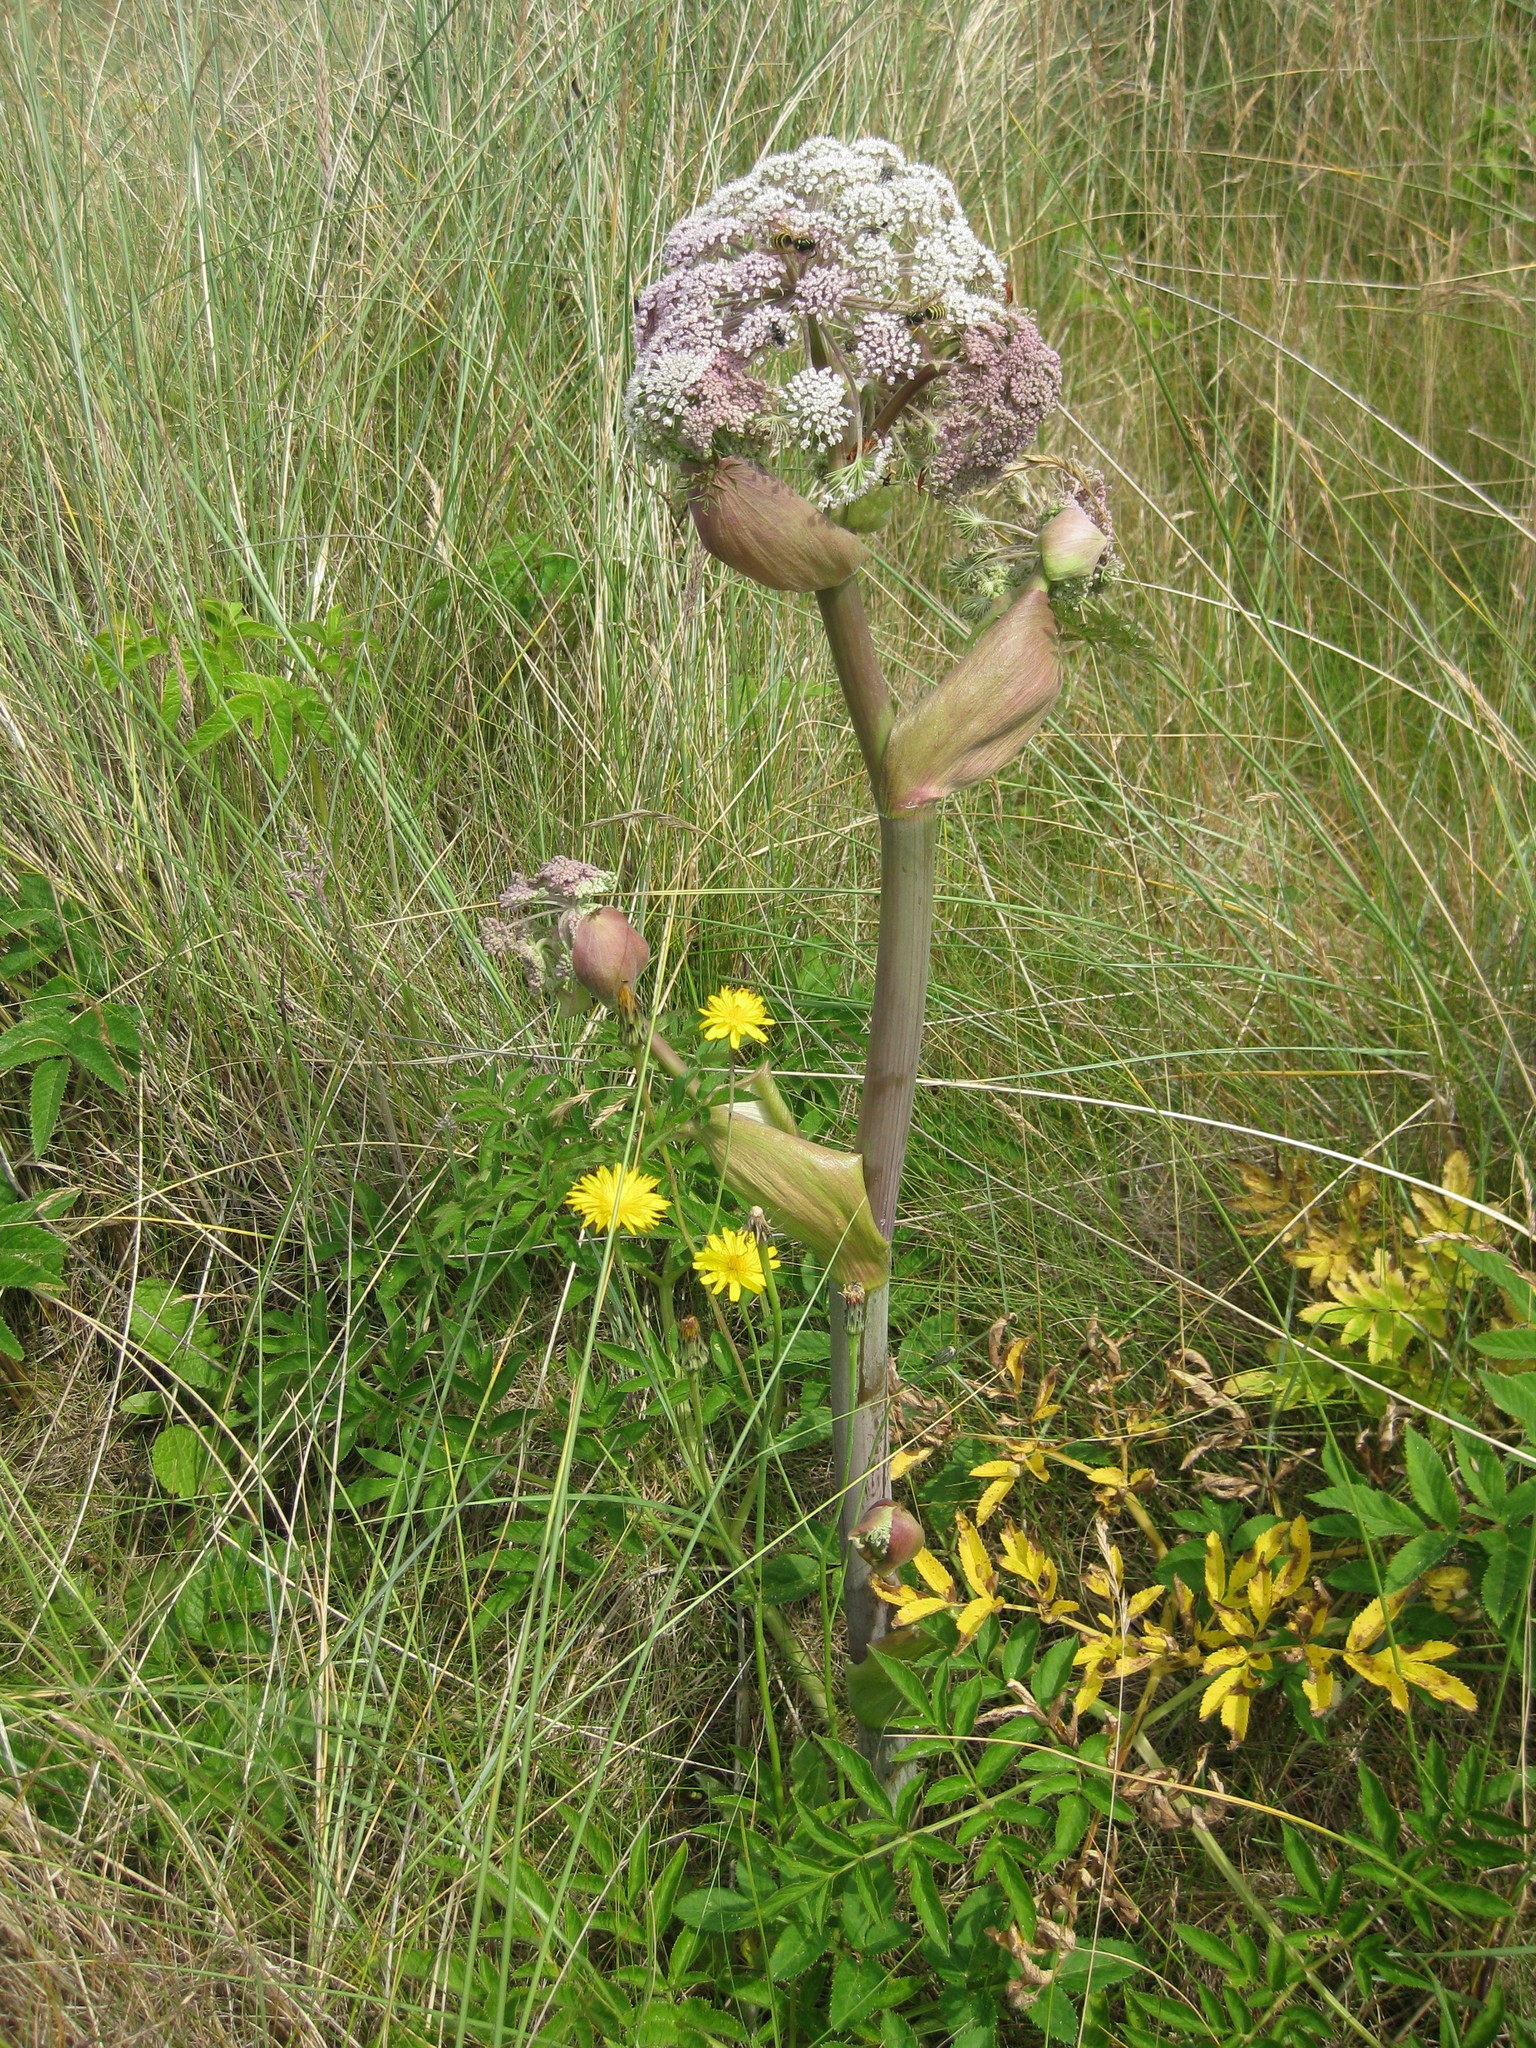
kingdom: Plantae
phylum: Tracheophyta
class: Magnoliopsida
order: Apiales
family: Apiaceae
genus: Angelica
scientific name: Angelica sylvestris
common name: Wild angelica
